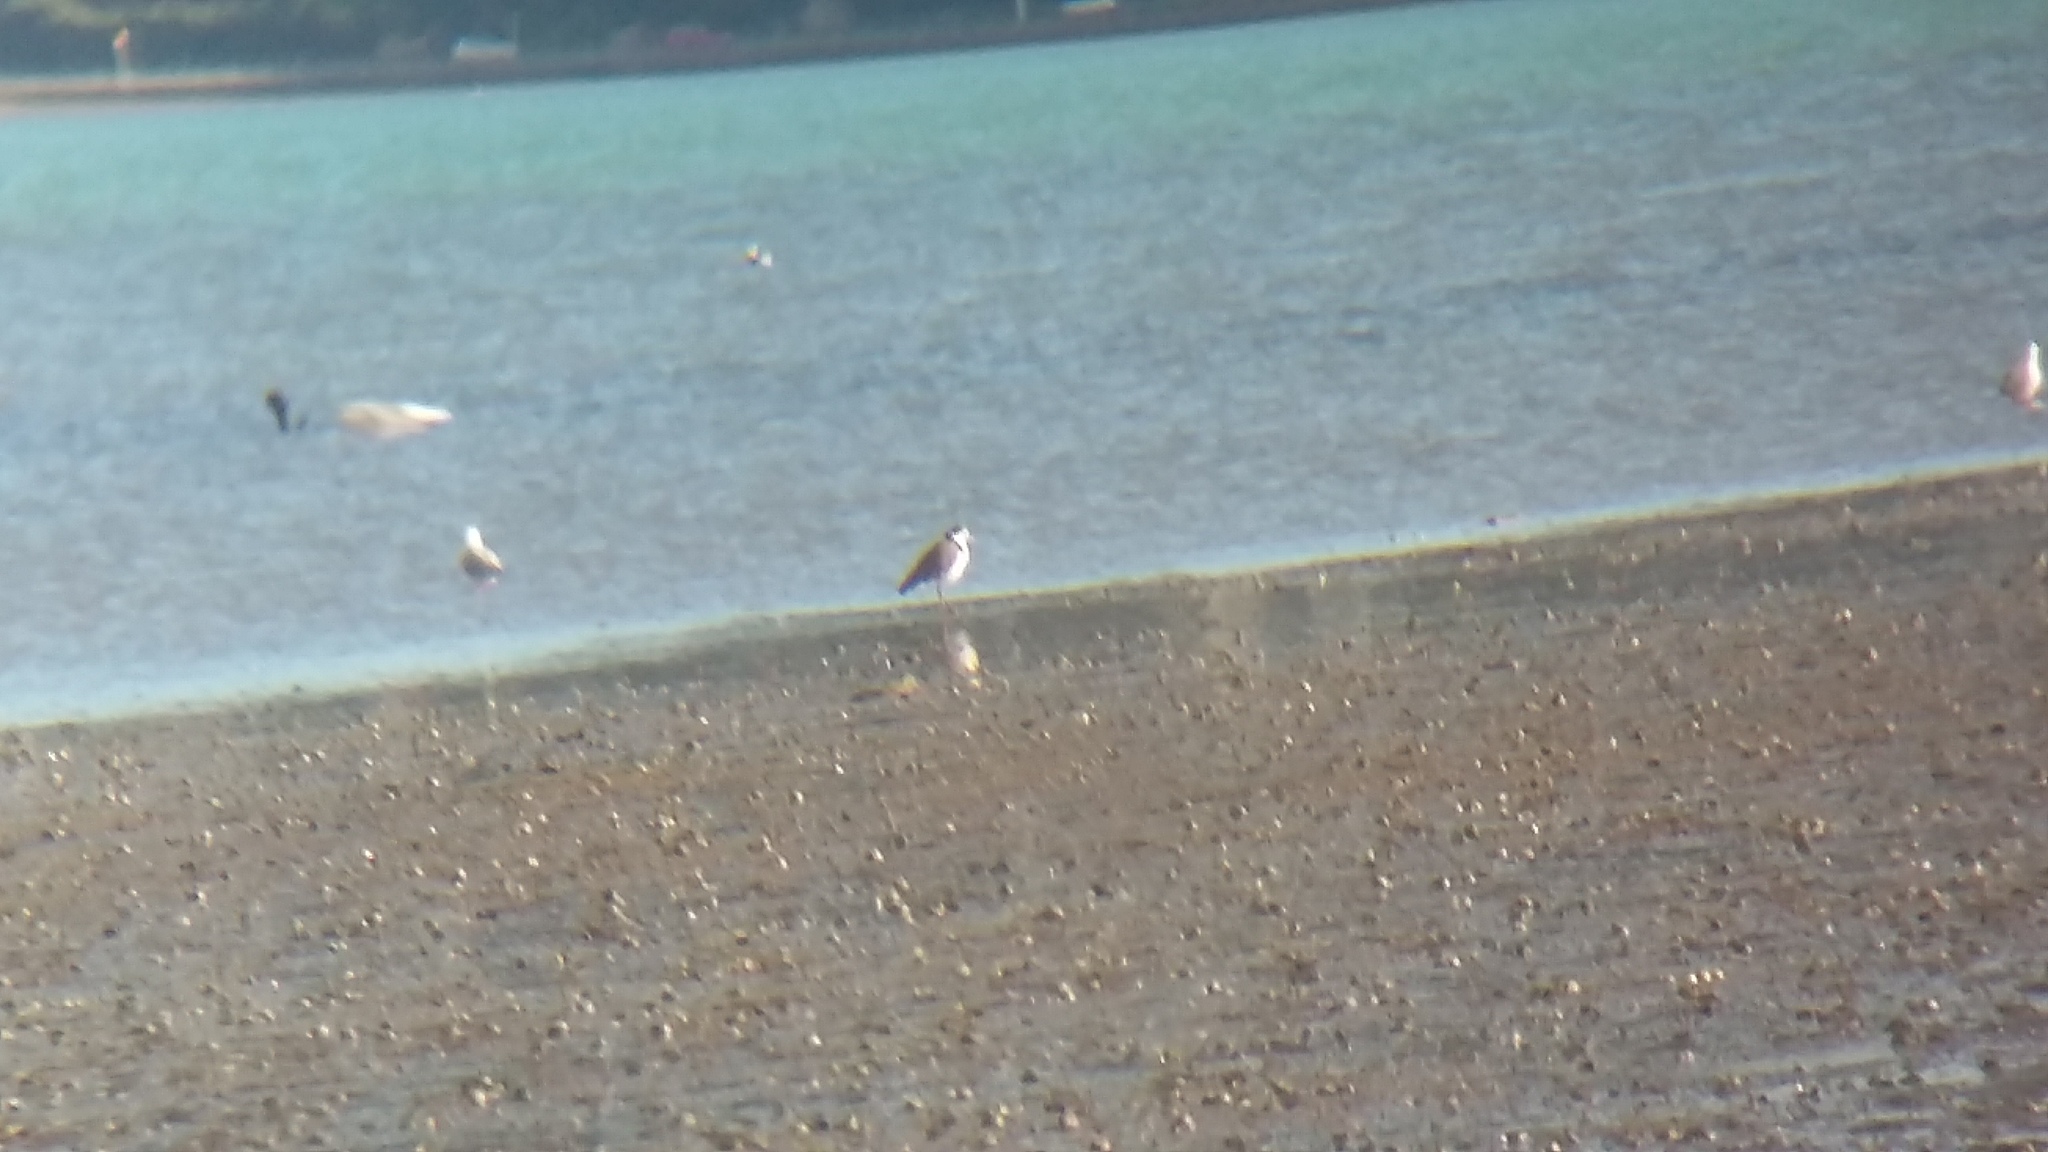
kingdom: Animalia
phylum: Chordata
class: Aves
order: Charadriiformes
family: Charadriidae
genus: Vanellus
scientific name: Vanellus miles
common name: Masked lapwing
